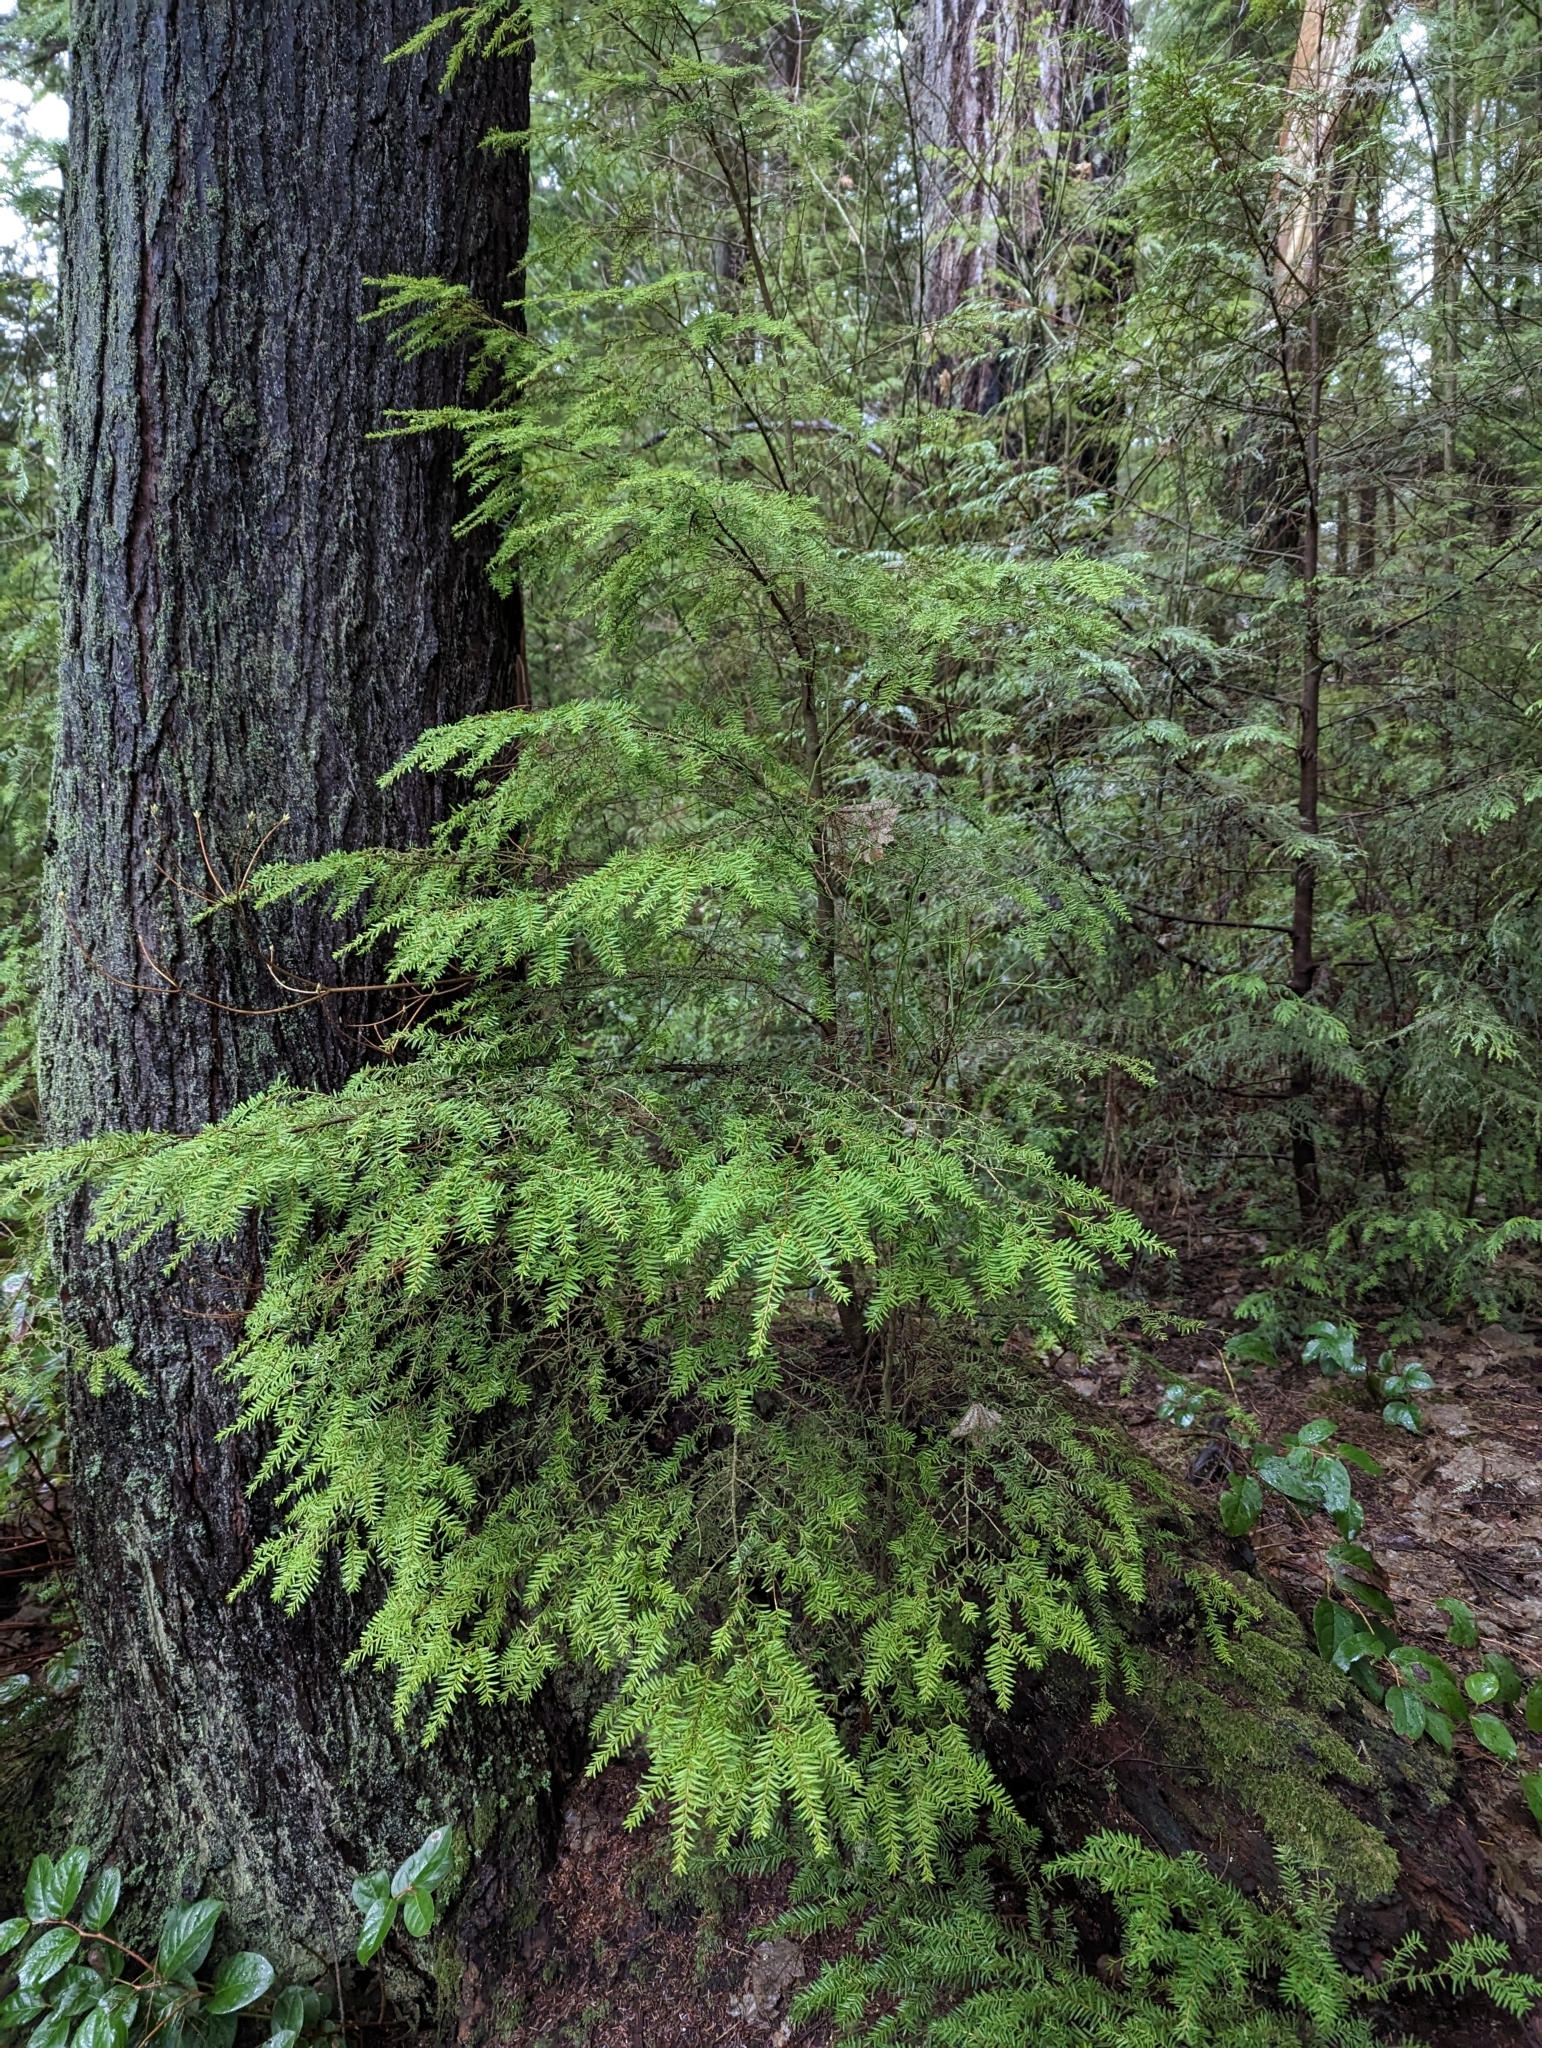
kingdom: Plantae
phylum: Tracheophyta
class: Pinopsida
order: Pinales
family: Pinaceae
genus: Tsuga
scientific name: Tsuga heterophylla
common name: Western hemlock
